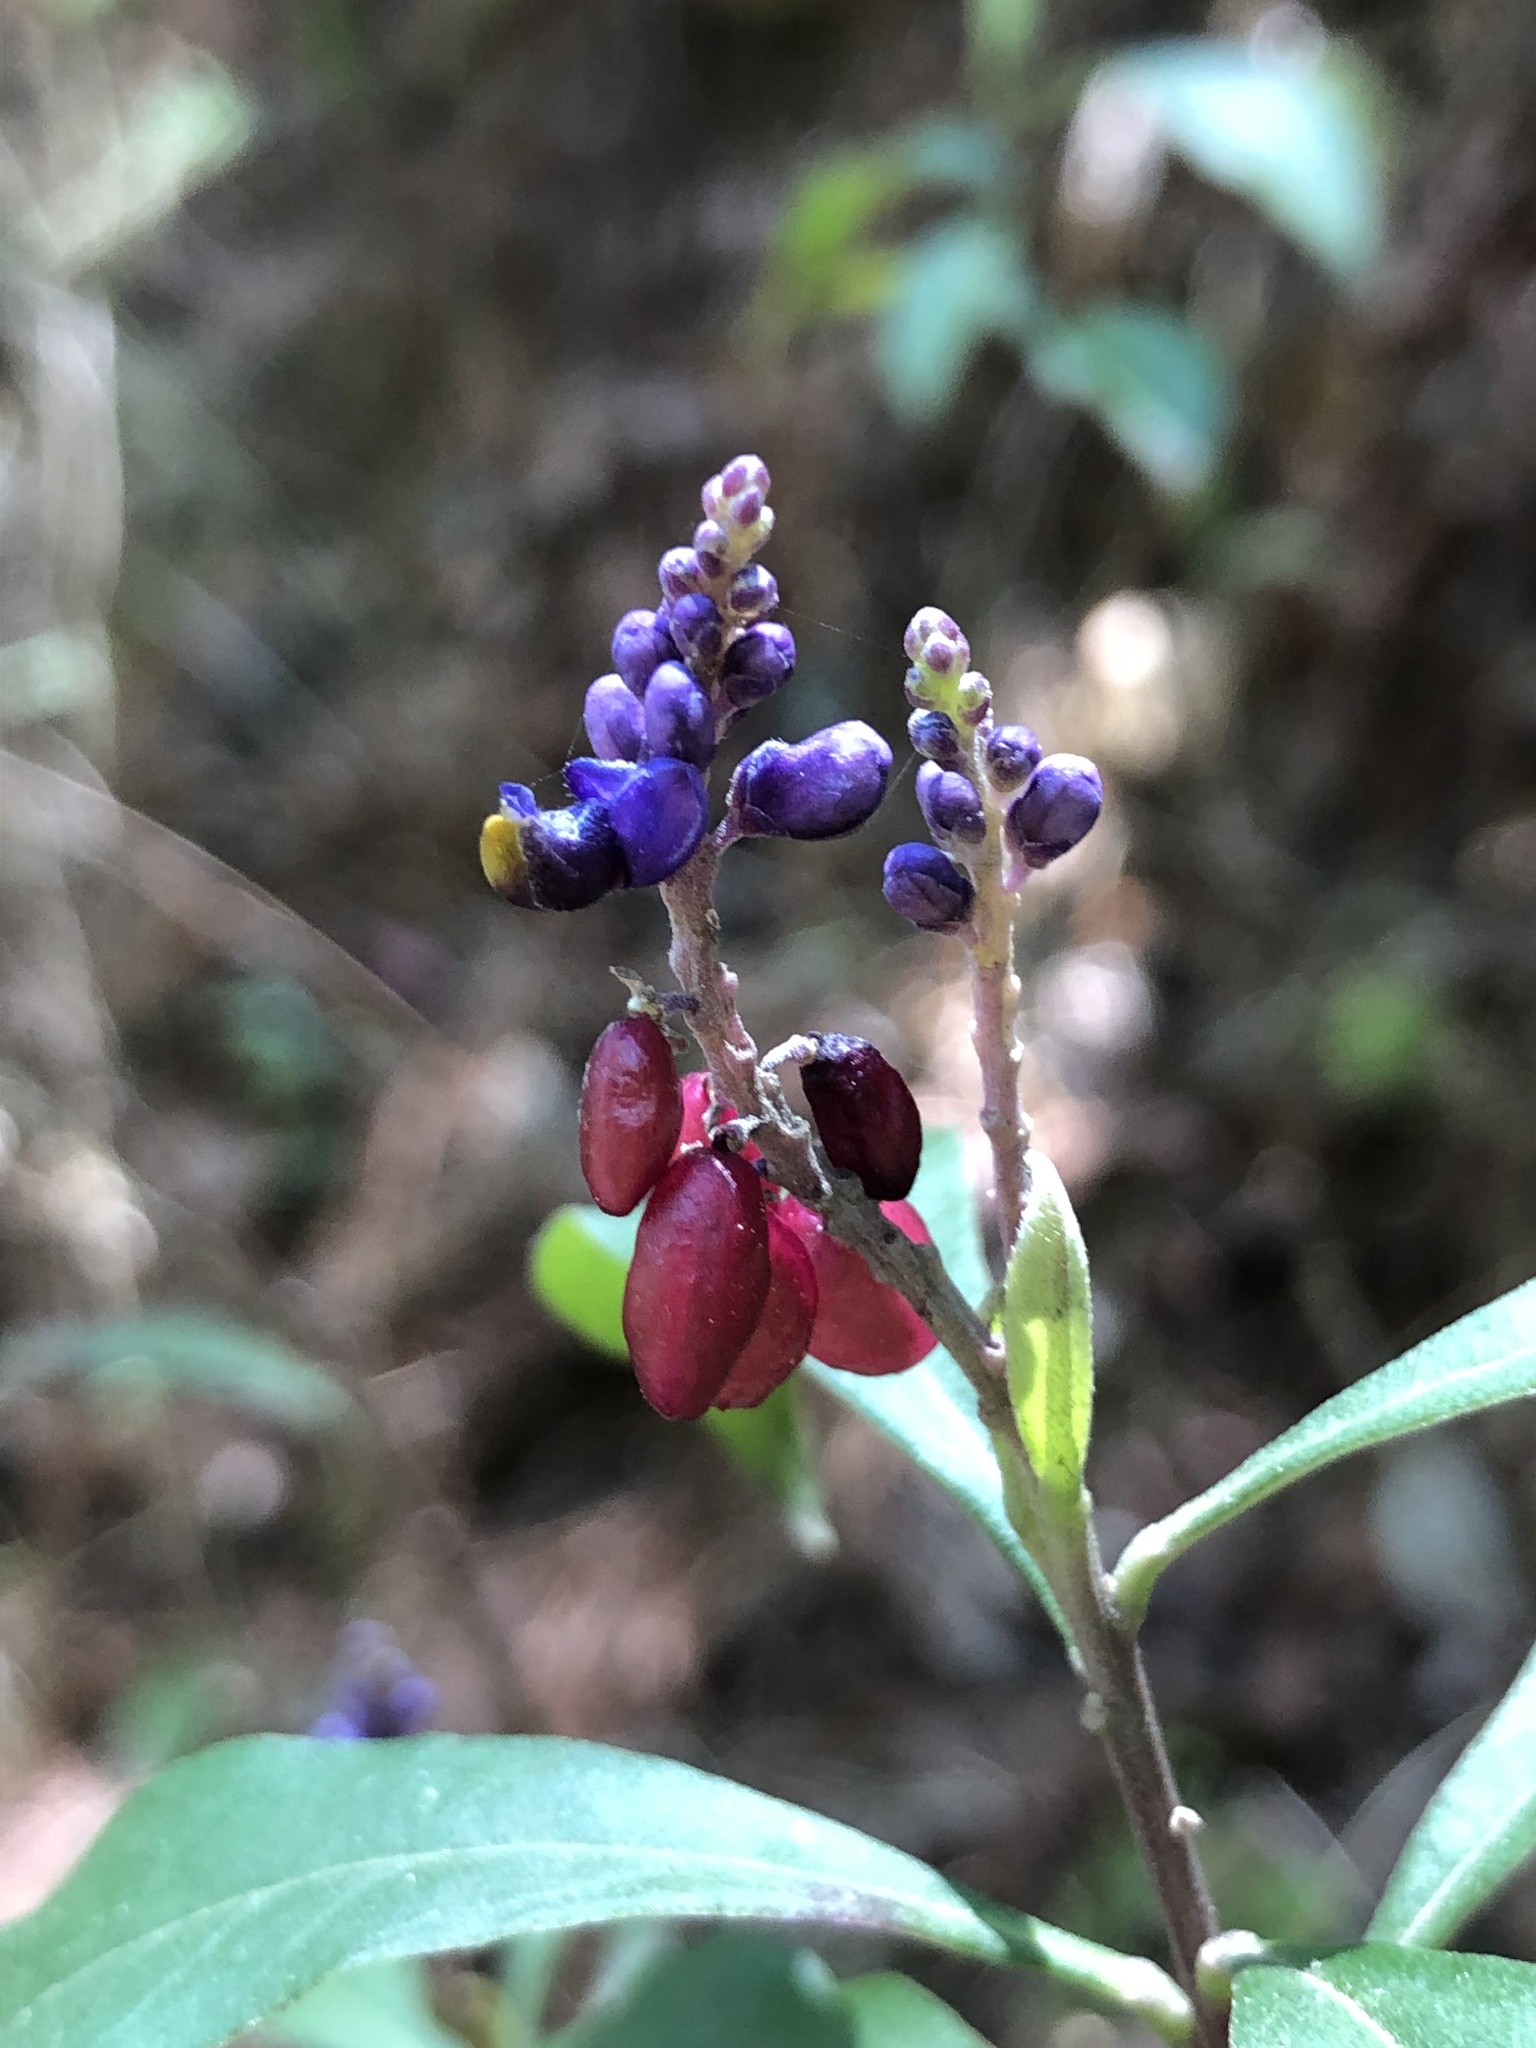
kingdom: Plantae
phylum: Tracheophyta
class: Magnoliopsida
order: Fabales
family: Polygalaceae
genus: Monnina
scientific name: Monnina xalapensis
